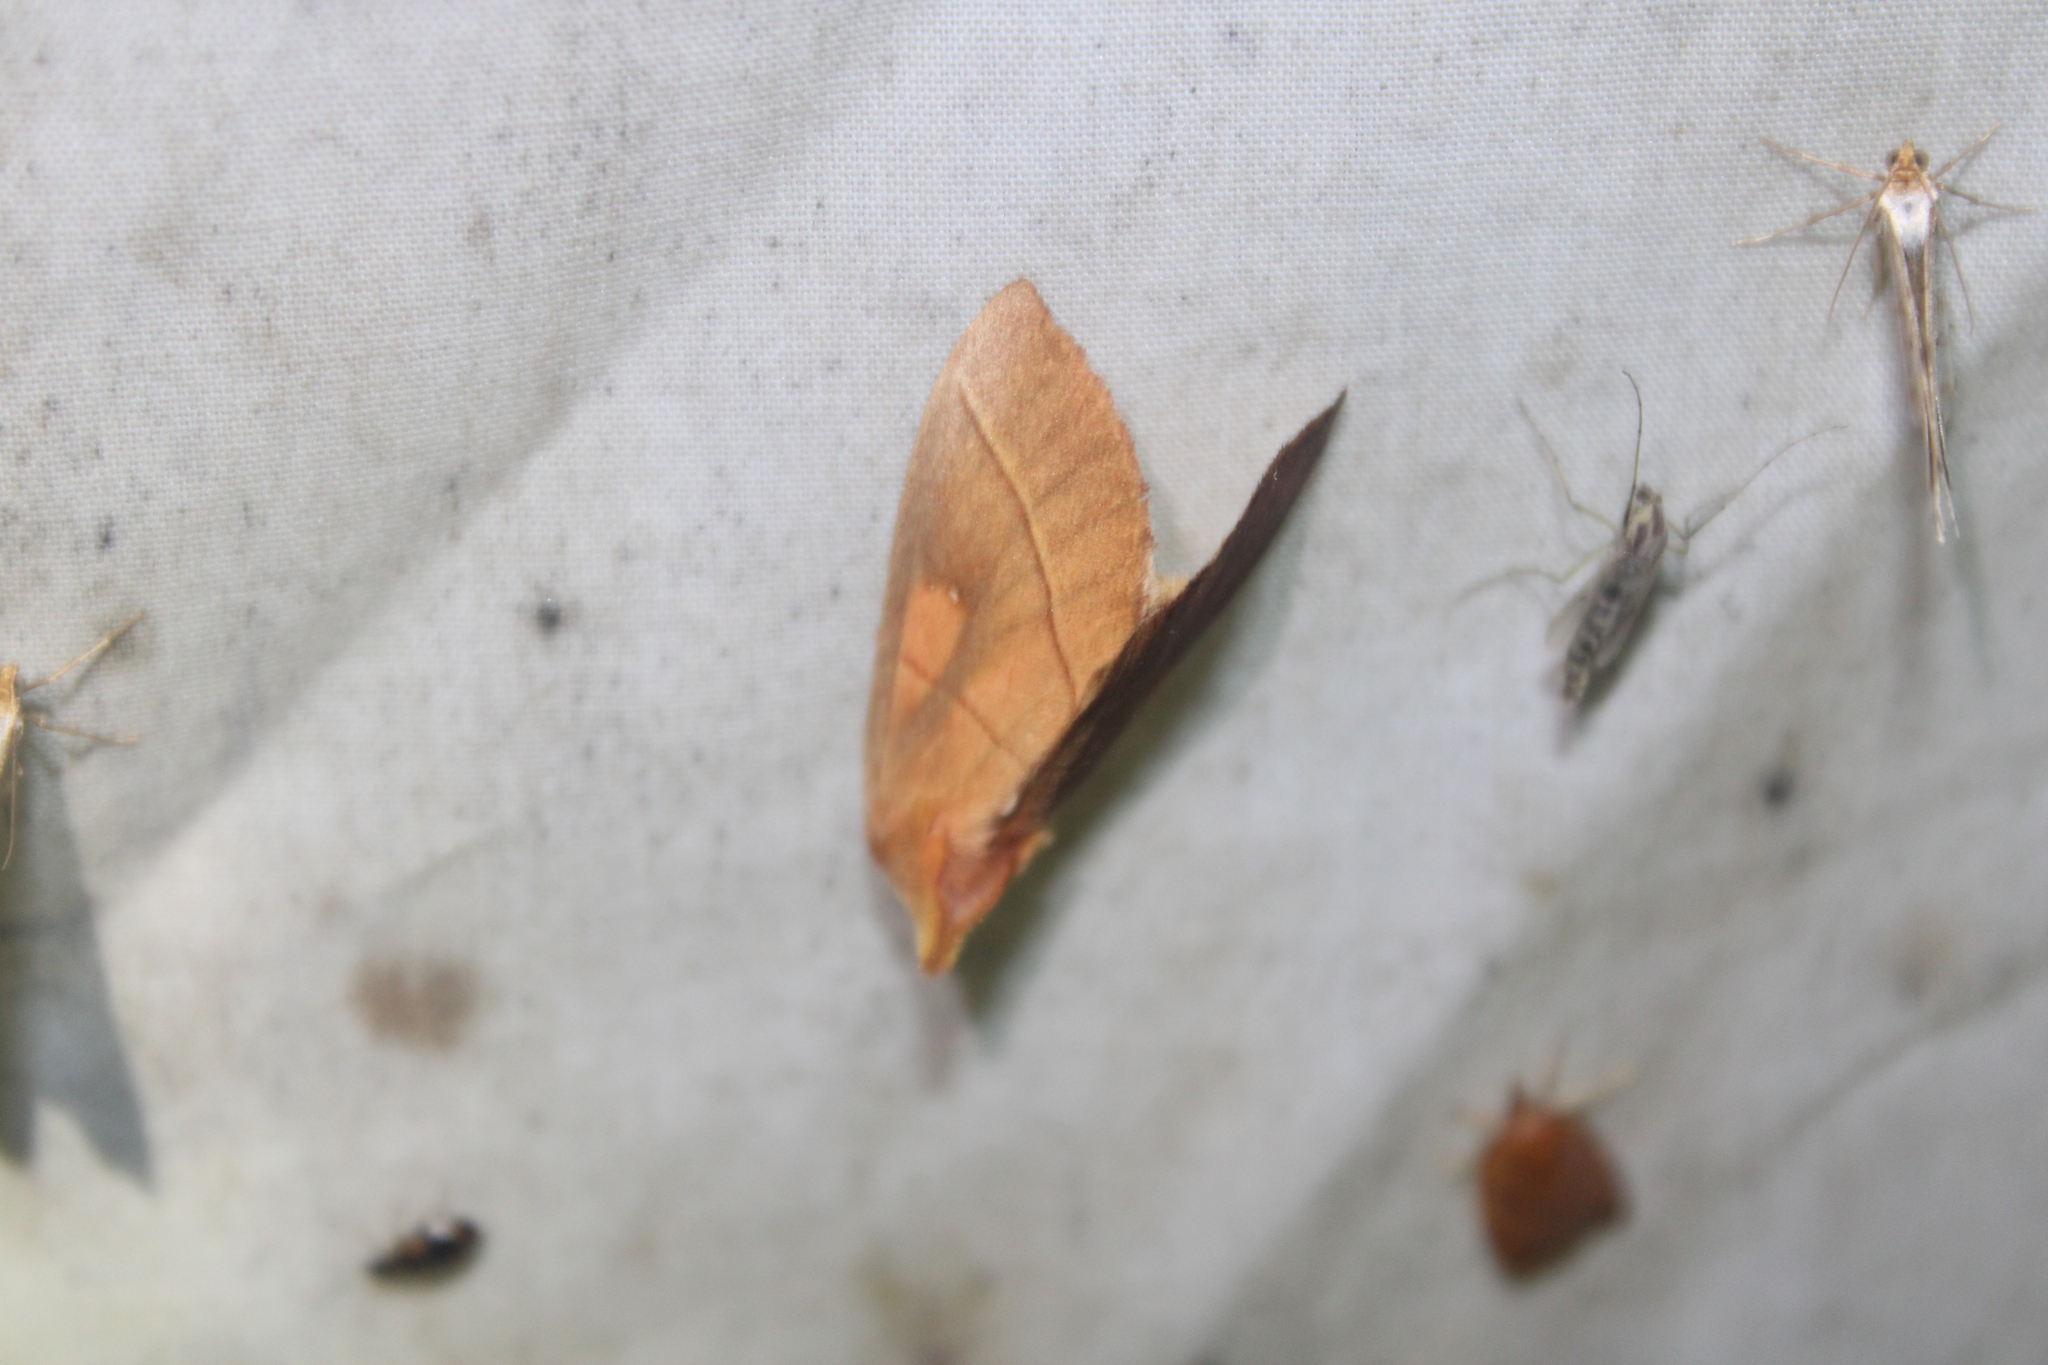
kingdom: Animalia
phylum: Arthropoda
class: Insecta
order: Lepidoptera
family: Notodontidae
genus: Nadata
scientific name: Nadata gibbosa
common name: White-dotted prominent
